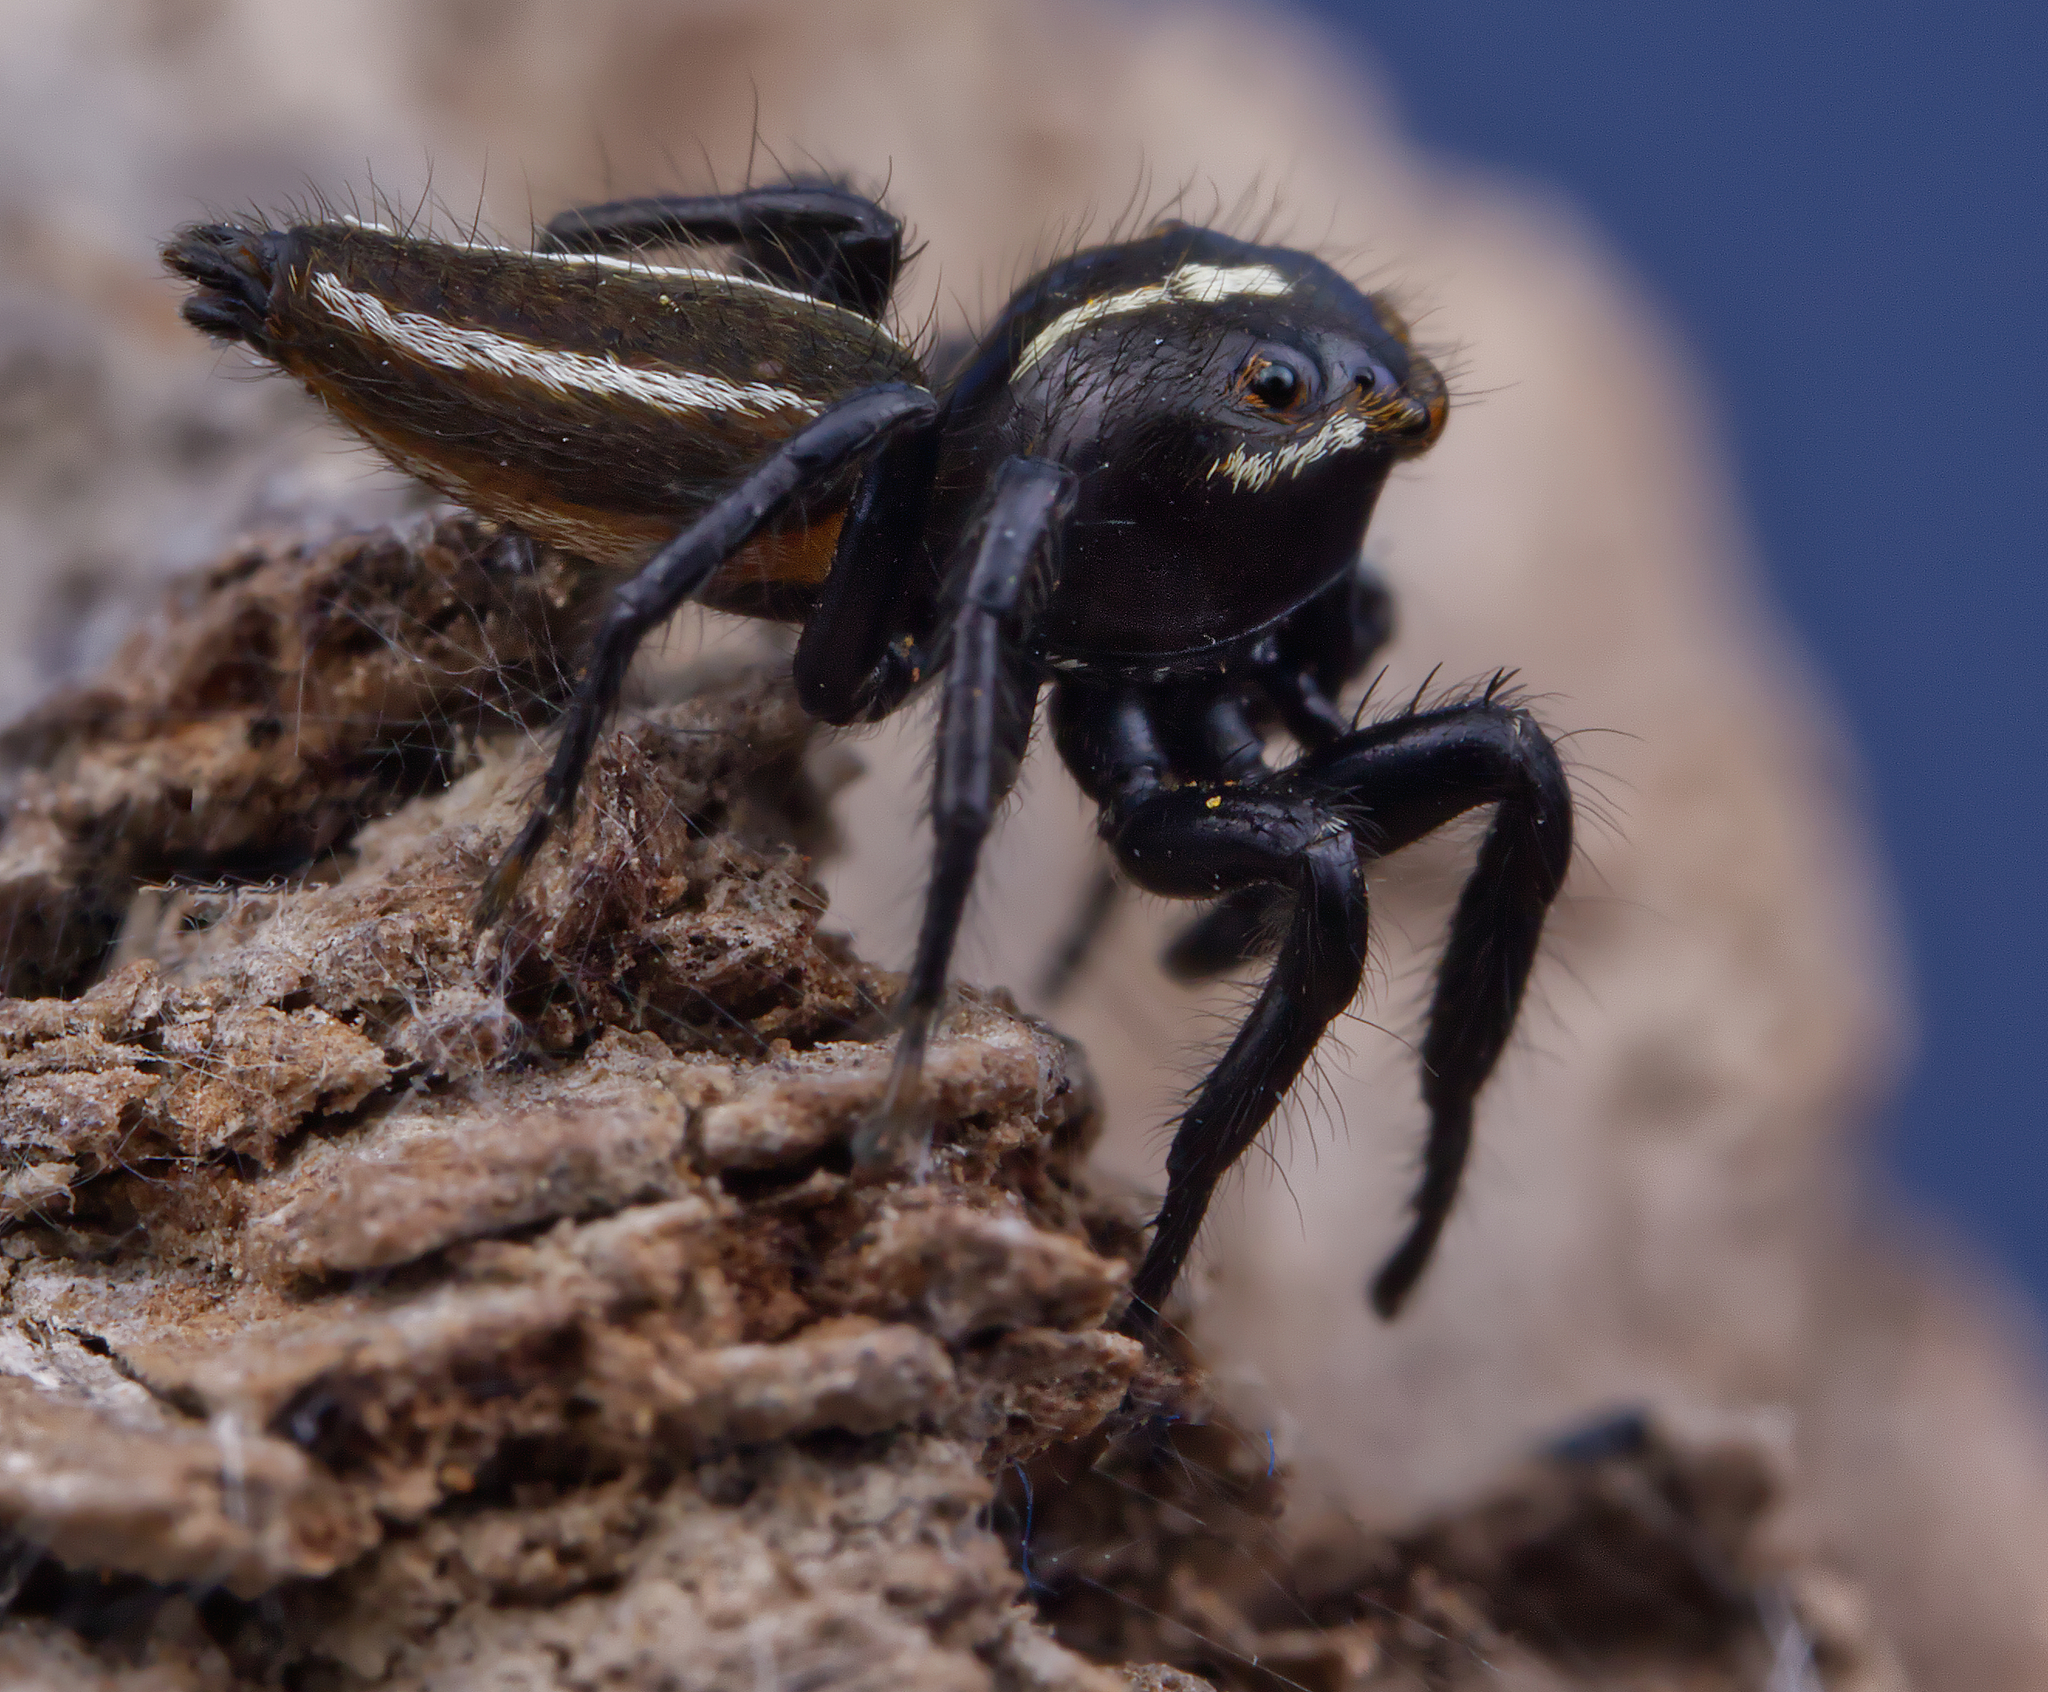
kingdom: Animalia
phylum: Arthropoda
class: Arachnida
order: Araneae
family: Salticidae
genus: Colonus
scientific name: Colonus puerperus
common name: Jumping spiders
